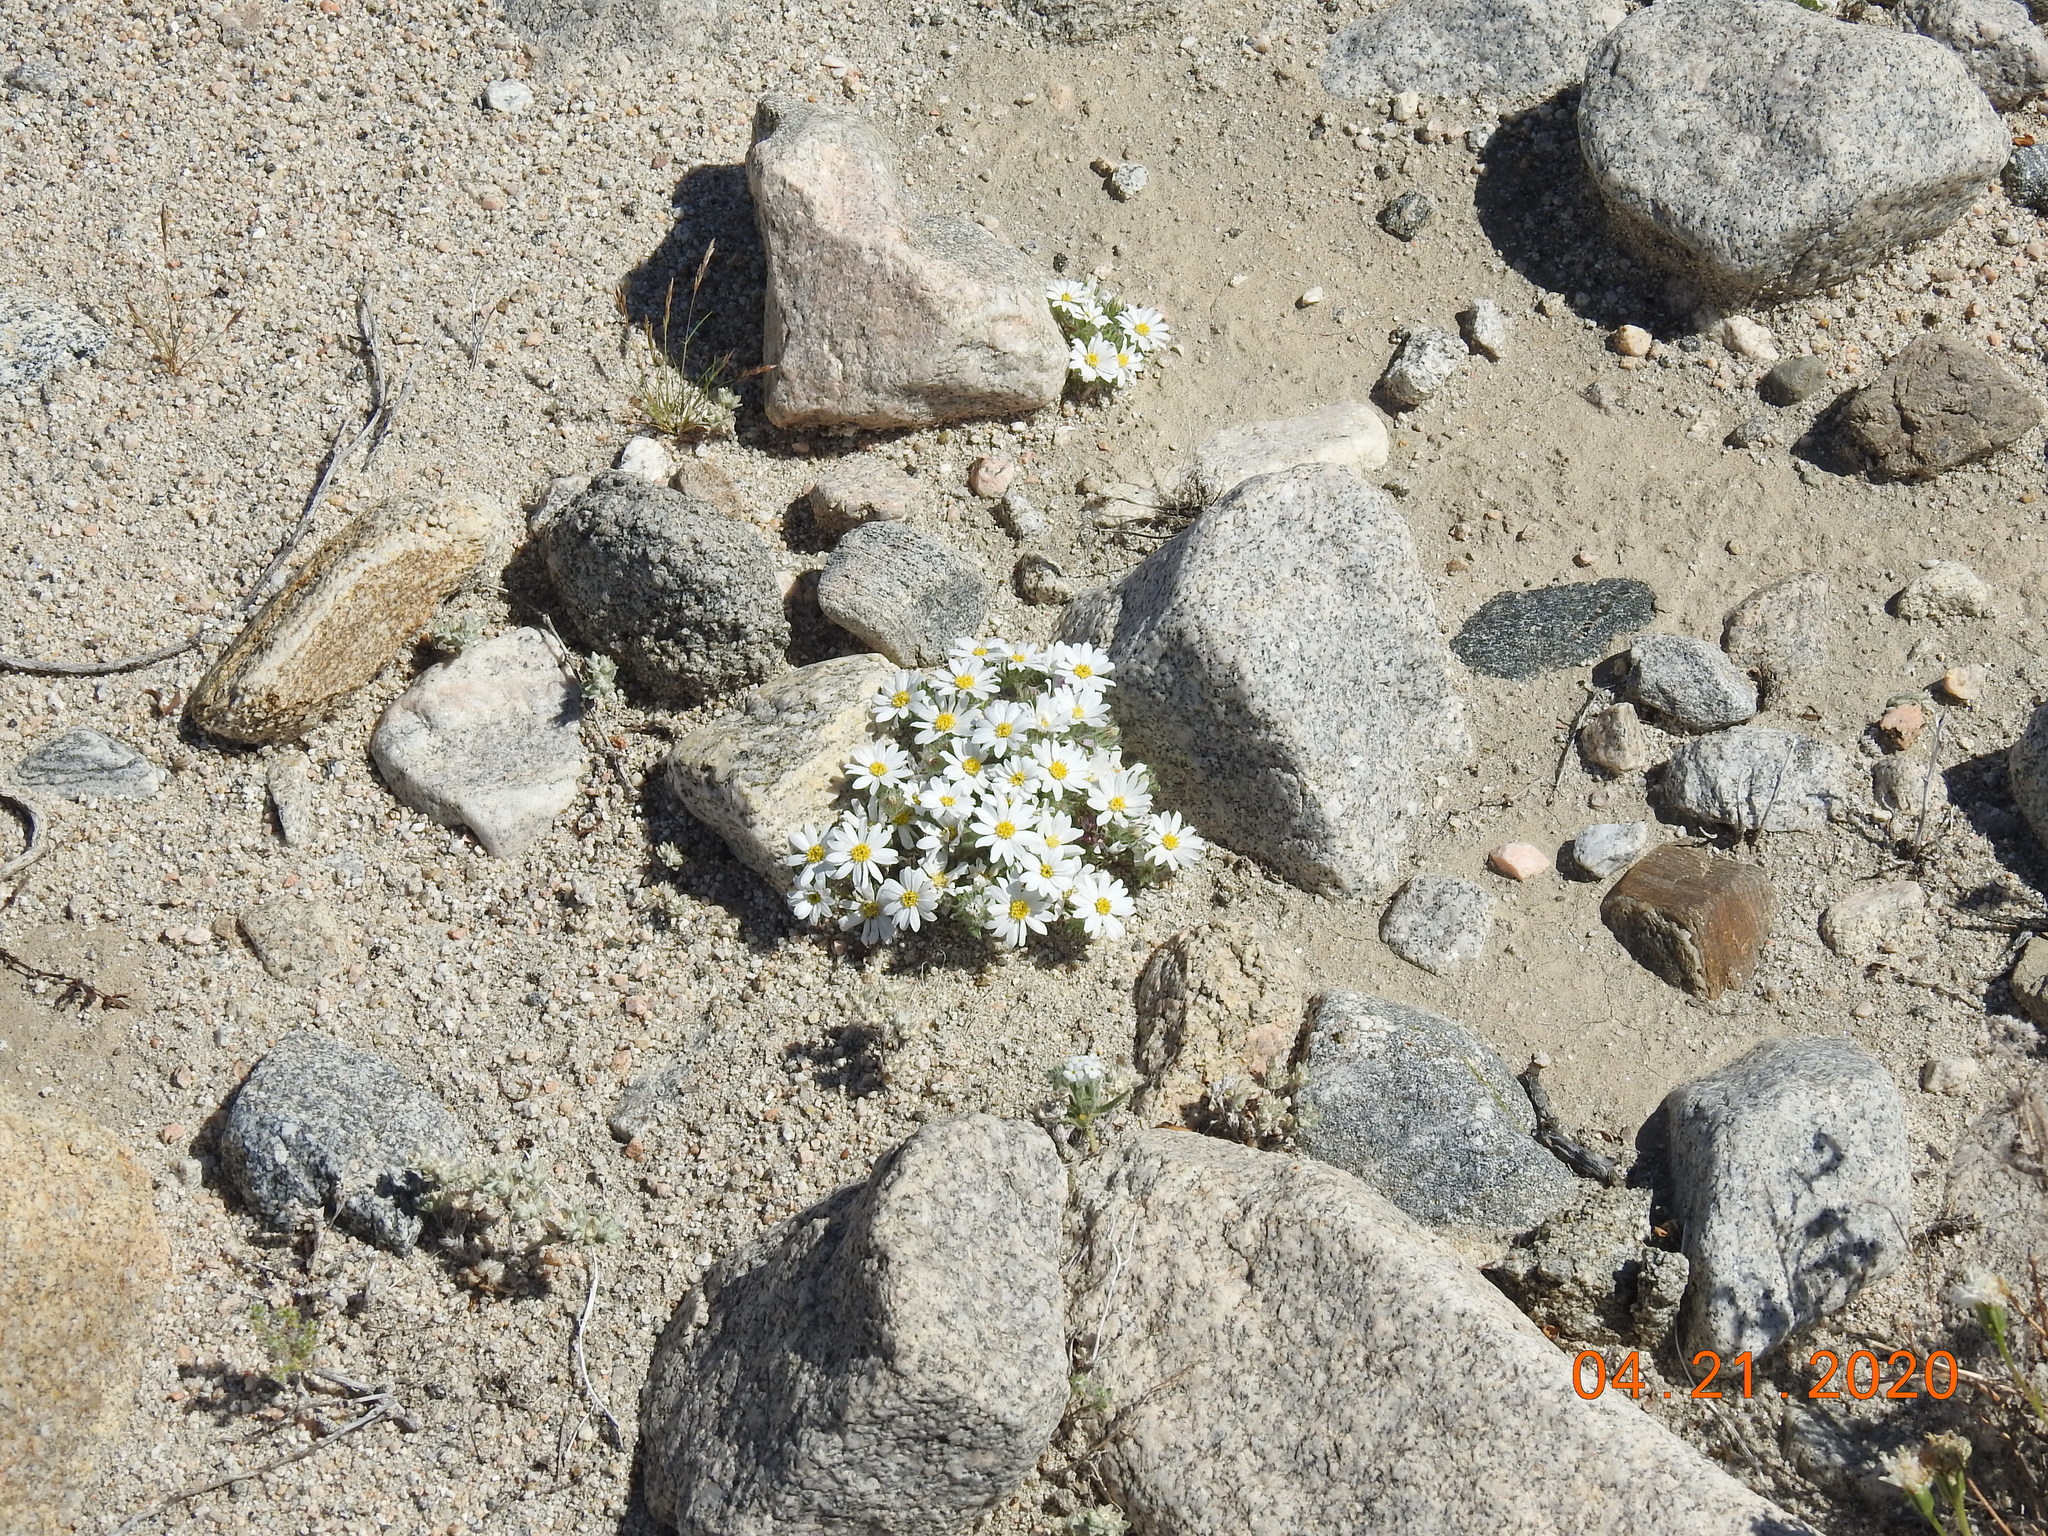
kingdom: Plantae
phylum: Tracheophyta
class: Magnoliopsida
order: Asterales
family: Asteraceae
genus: Monoptilon
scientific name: Monoptilon bellioides
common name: Bristly desertstar
